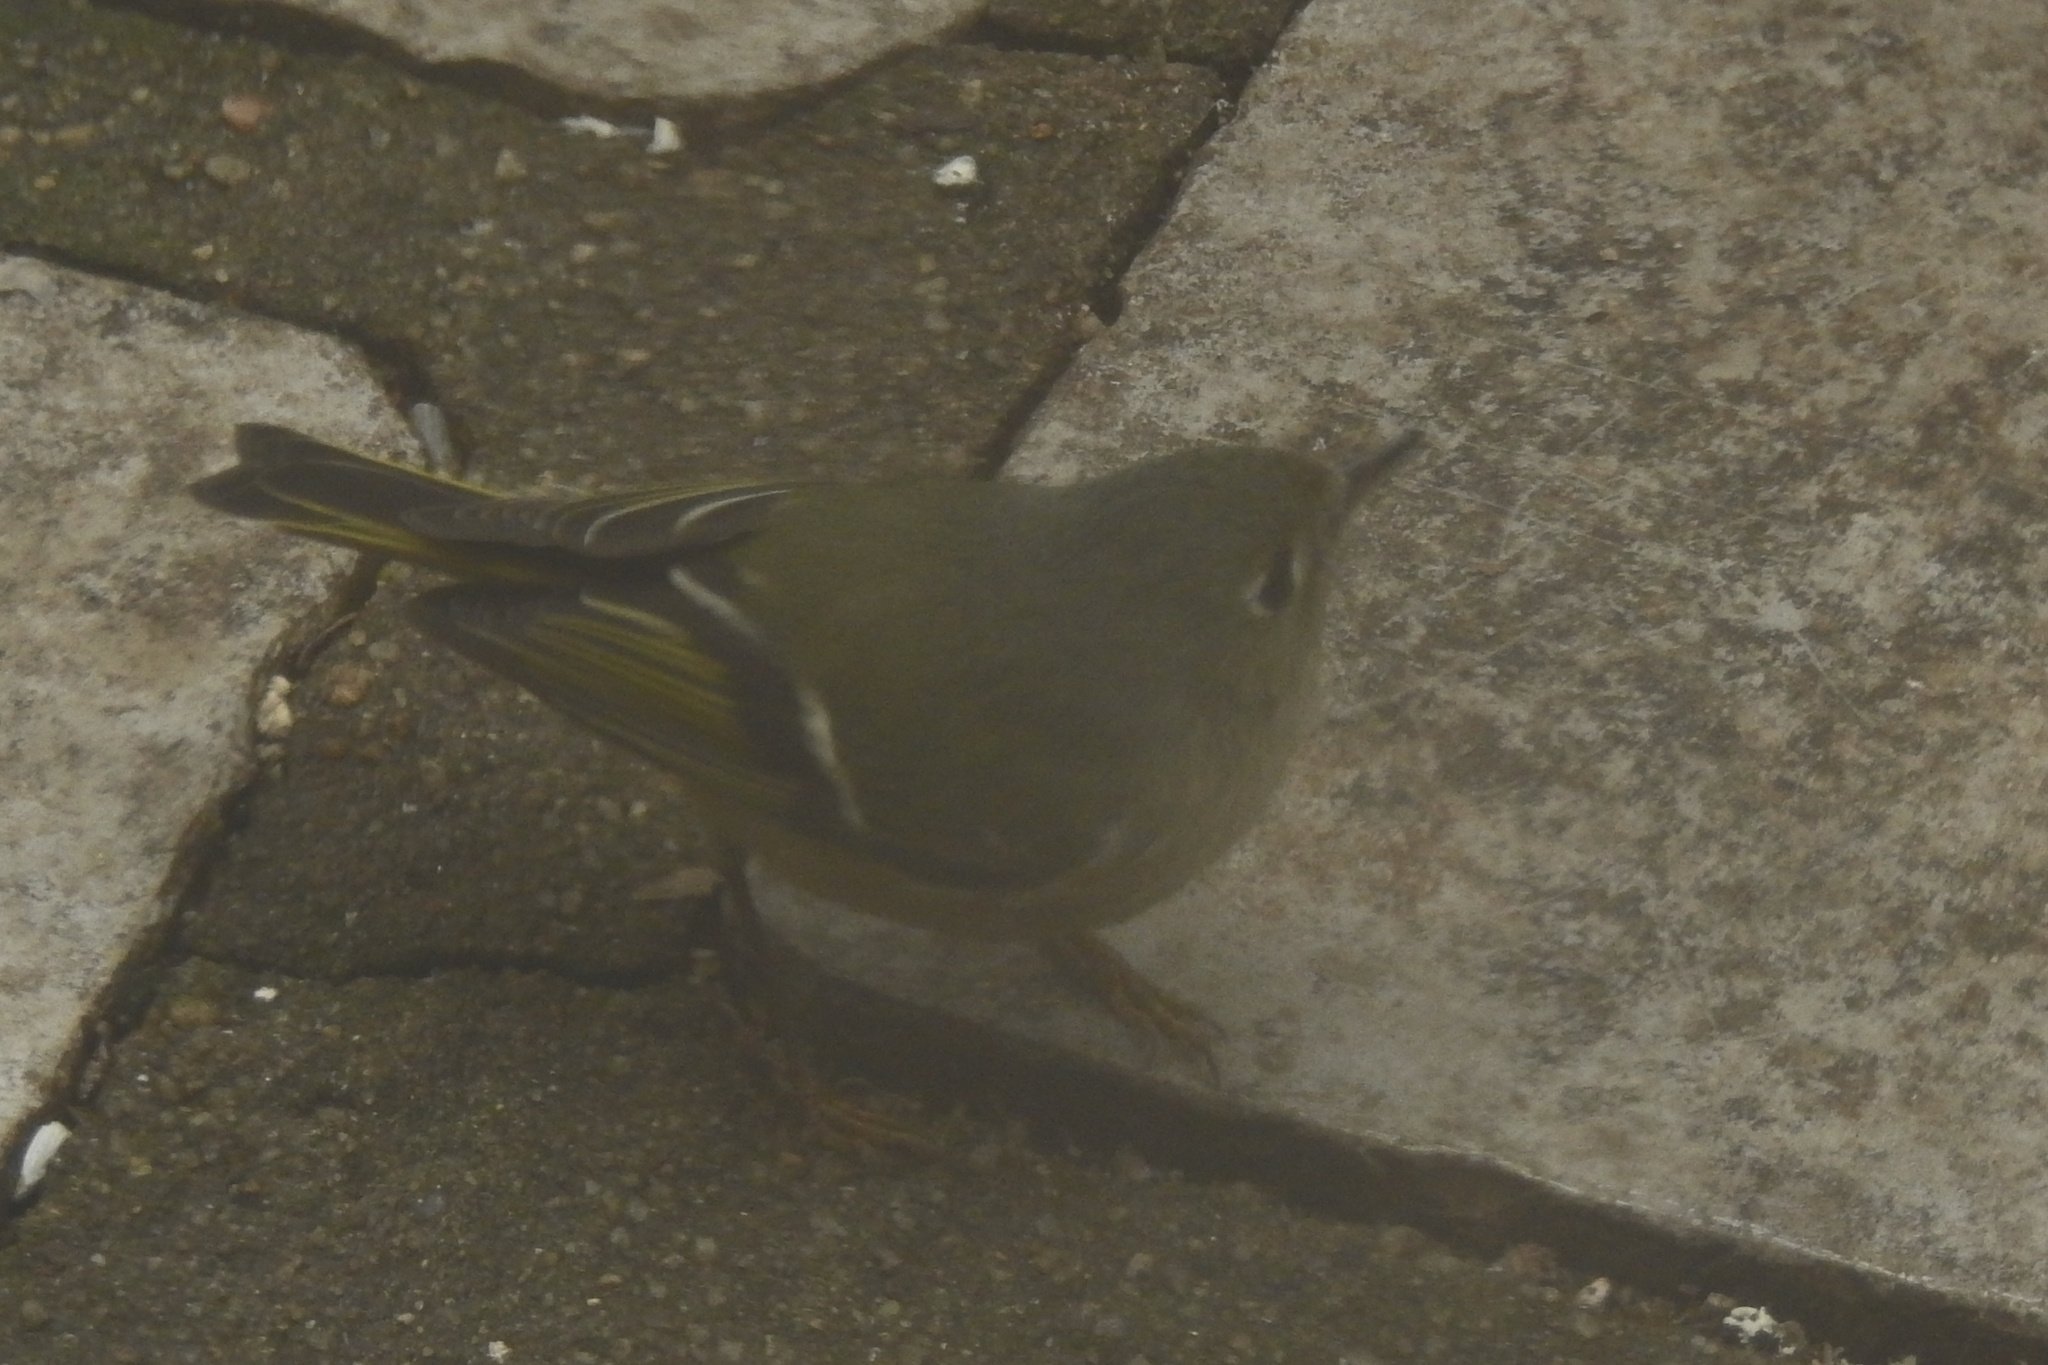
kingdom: Animalia
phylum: Chordata
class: Aves
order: Passeriformes
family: Regulidae
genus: Regulus
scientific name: Regulus calendula
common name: Ruby-crowned kinglet
